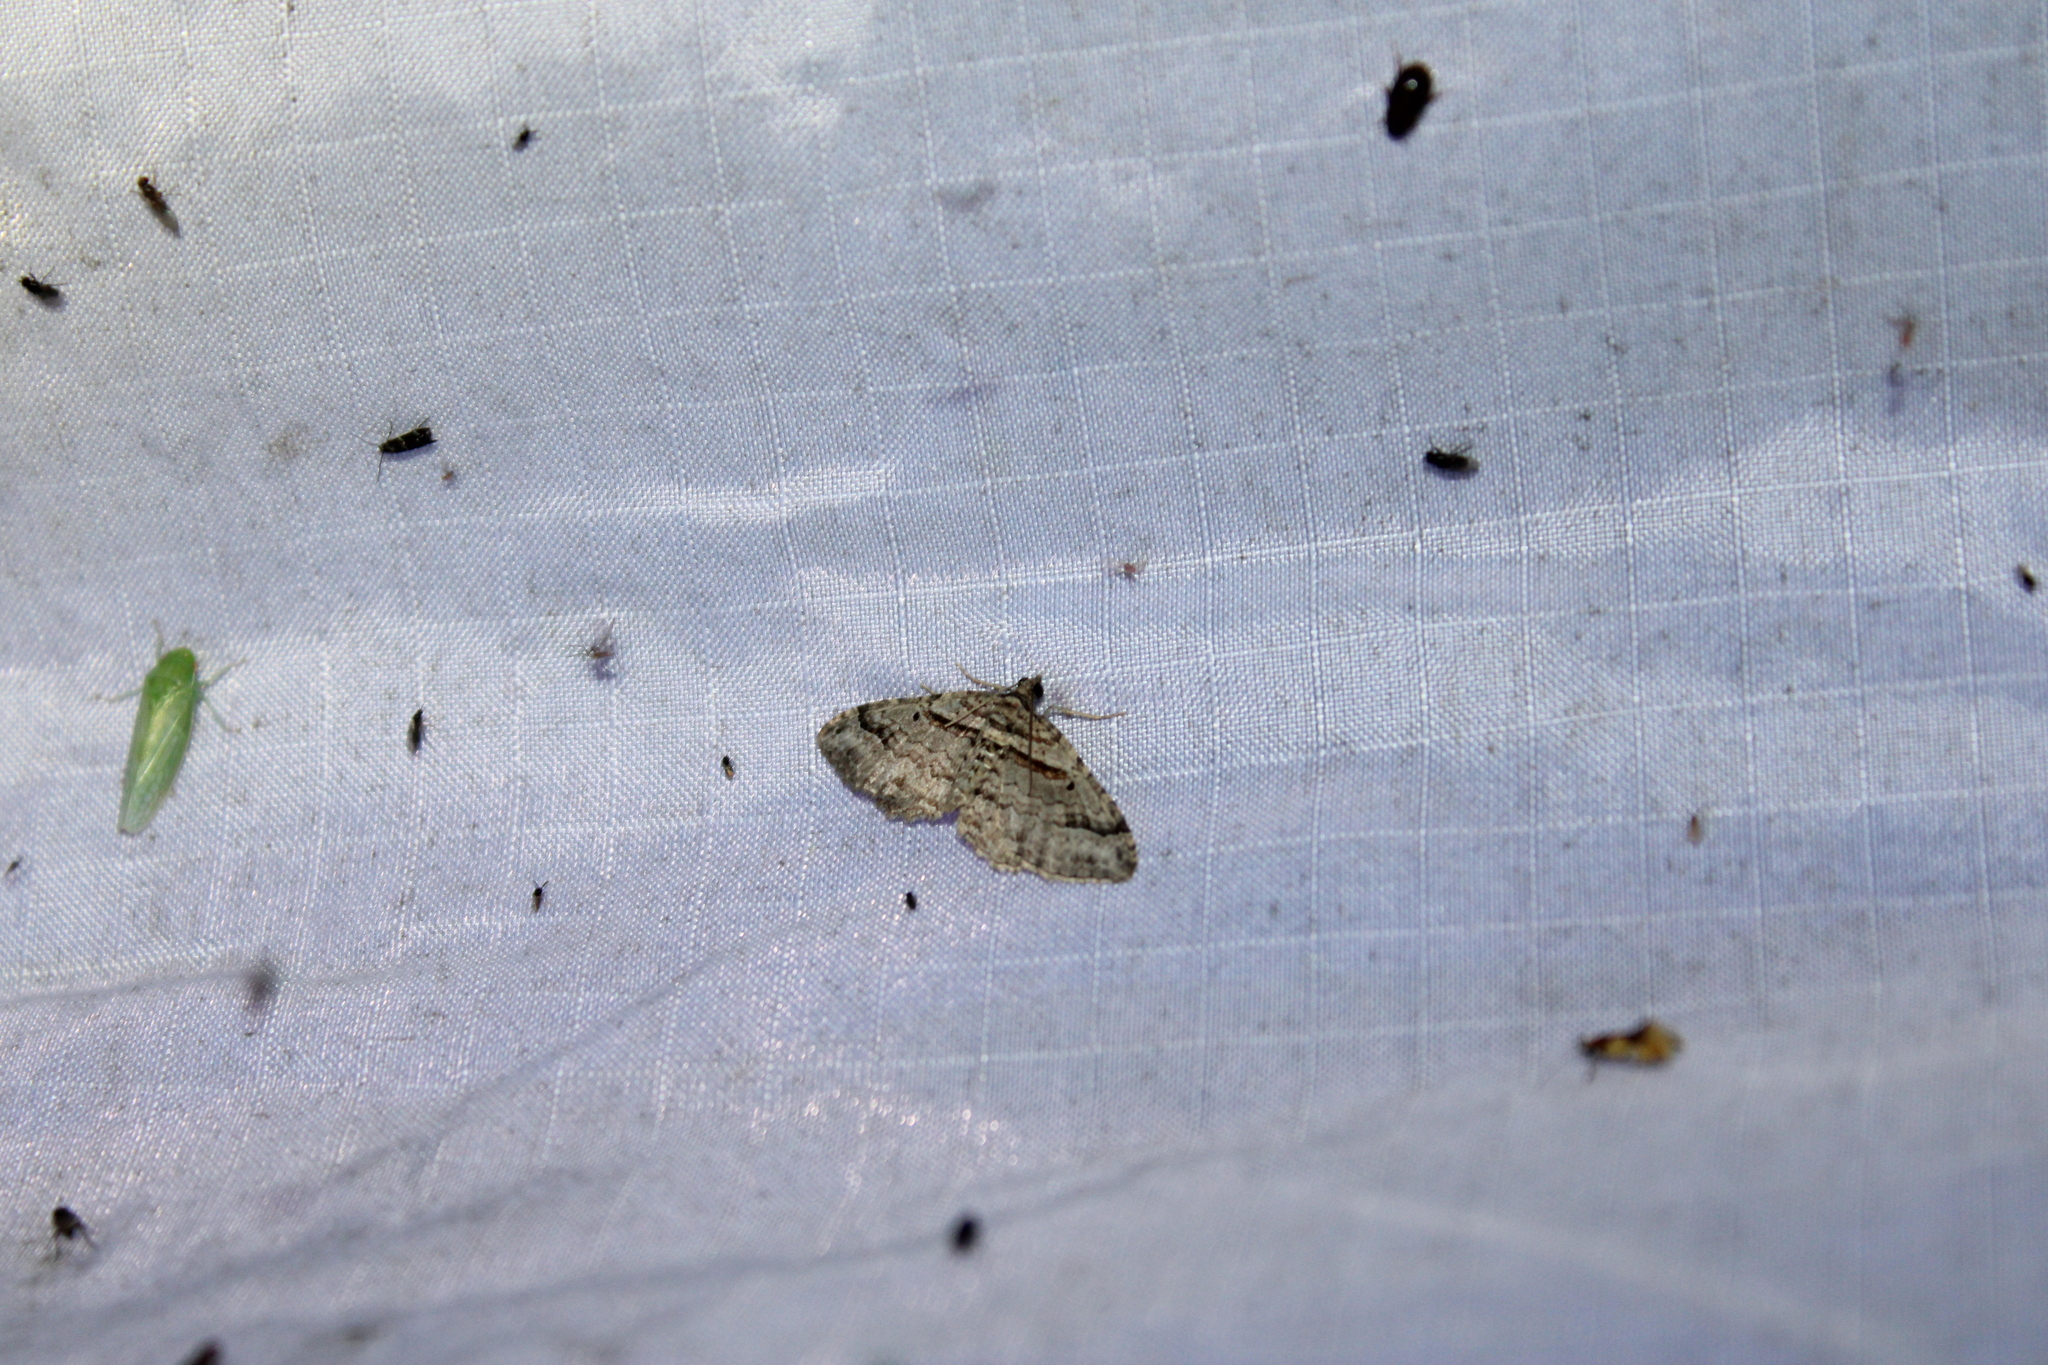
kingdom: Animalia
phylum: Arthropoda
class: Insecta
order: Lepidoptera
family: Geometridae
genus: Costaconvexa
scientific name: Costaconvexa centrostrigaria
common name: Bent-line carpet
